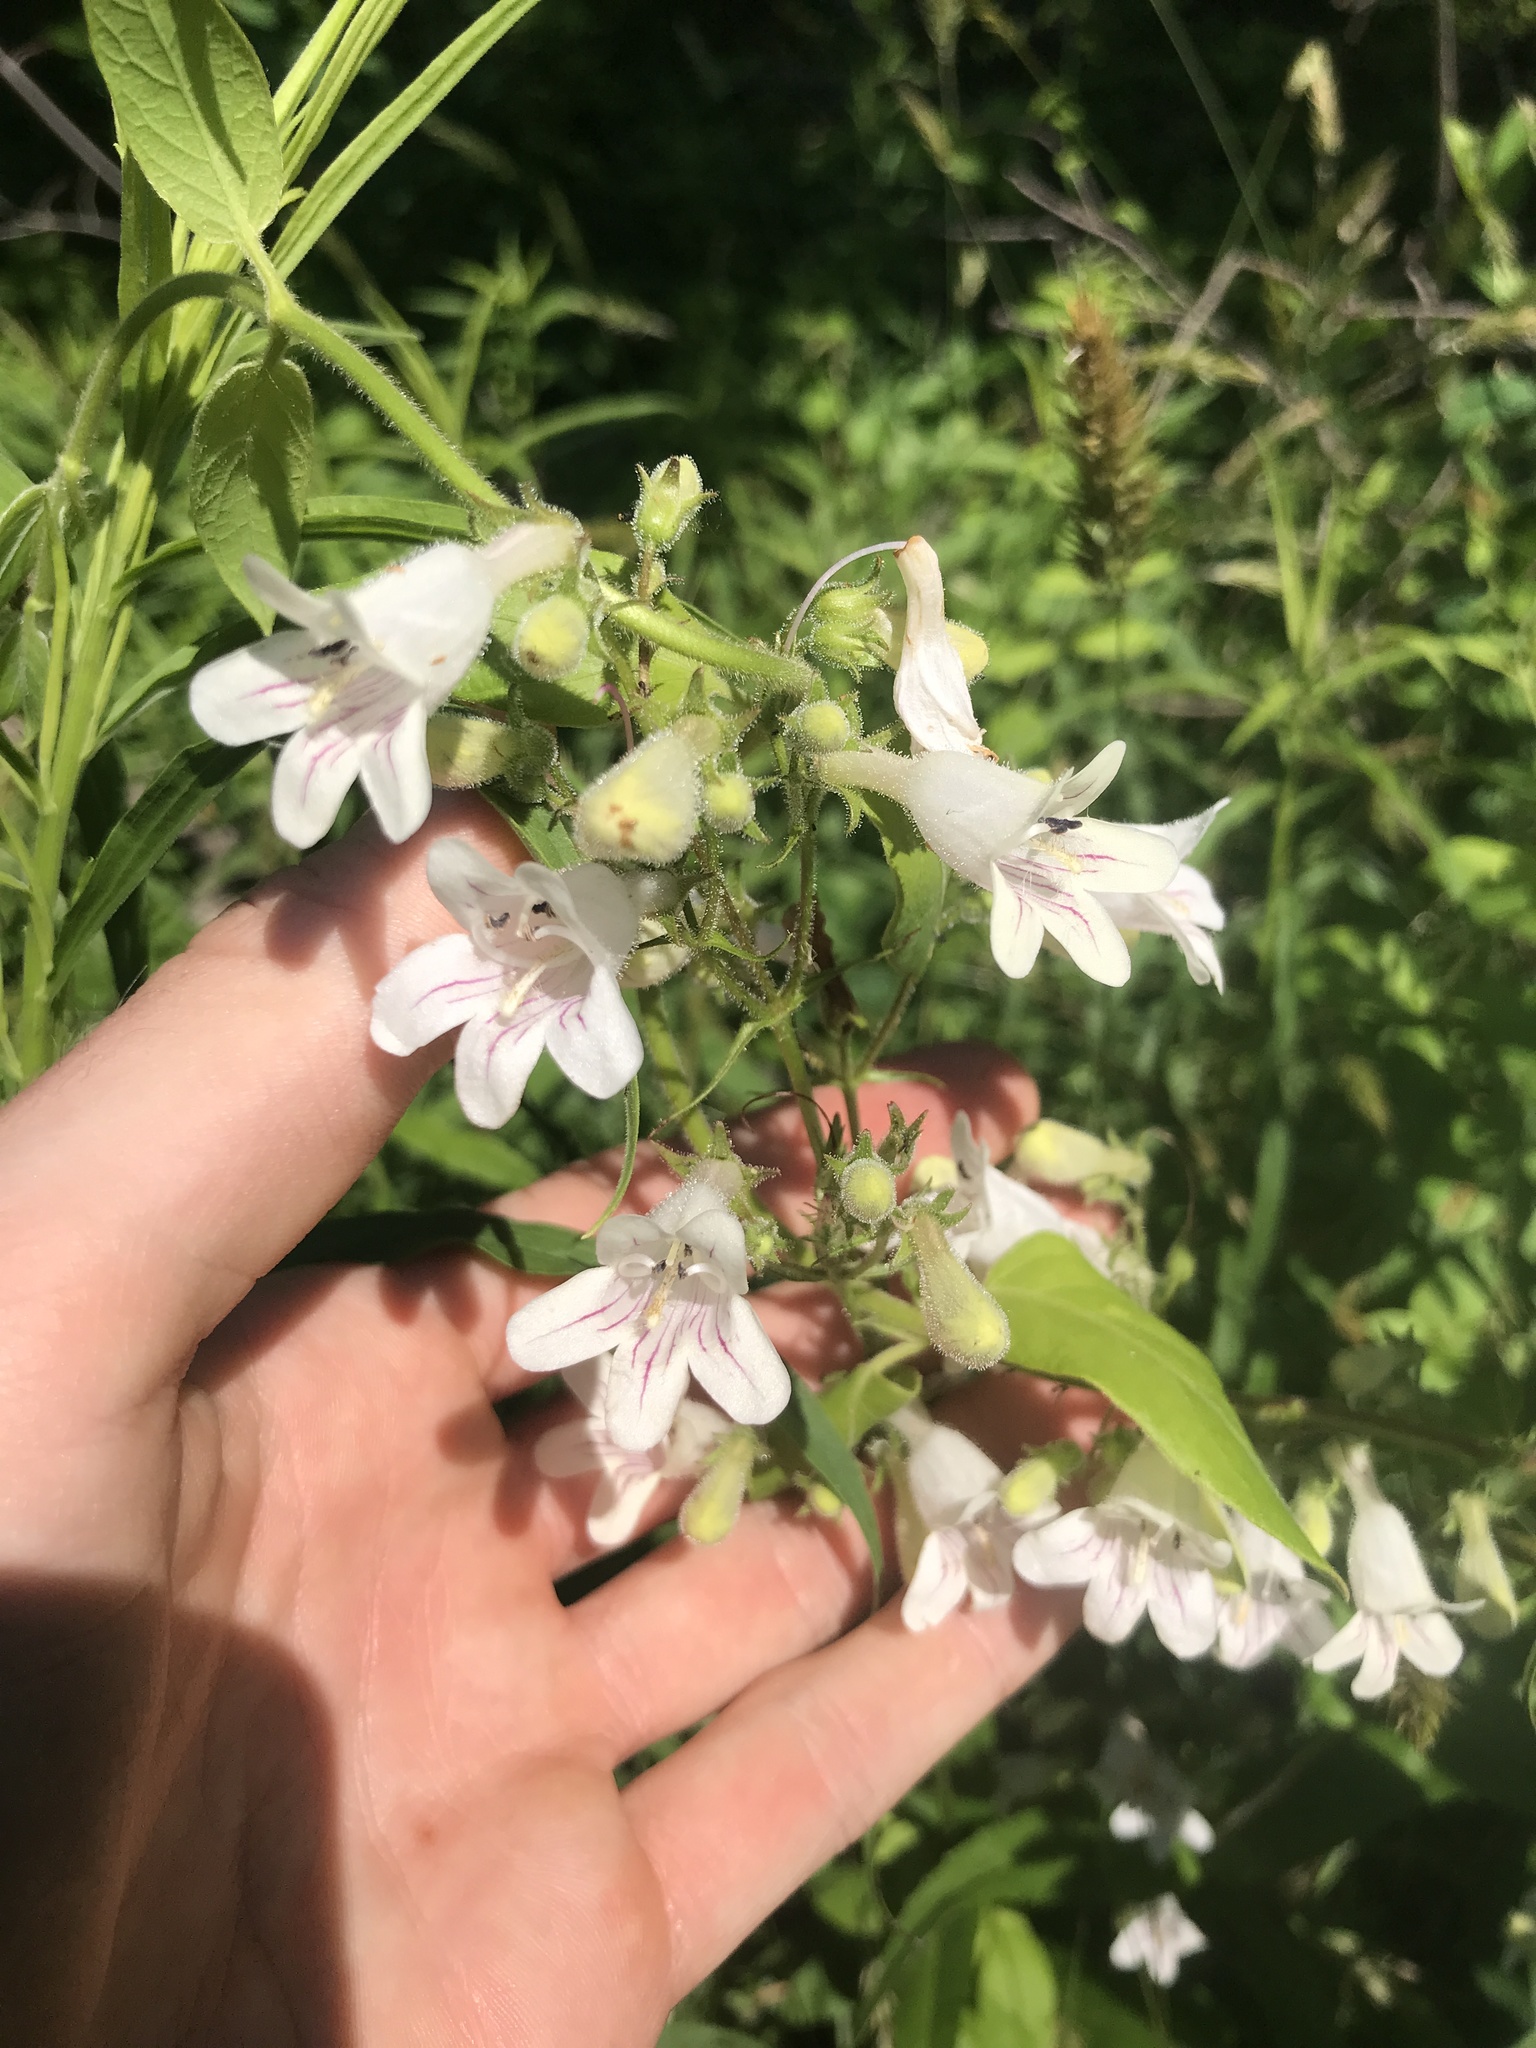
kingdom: Plantae
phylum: Tracheophyta
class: Magnoliopsida
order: Lamiales
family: Plantaginaceae
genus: Penstemon
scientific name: Penstemon digitalis
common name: Foxglove beardtongue
